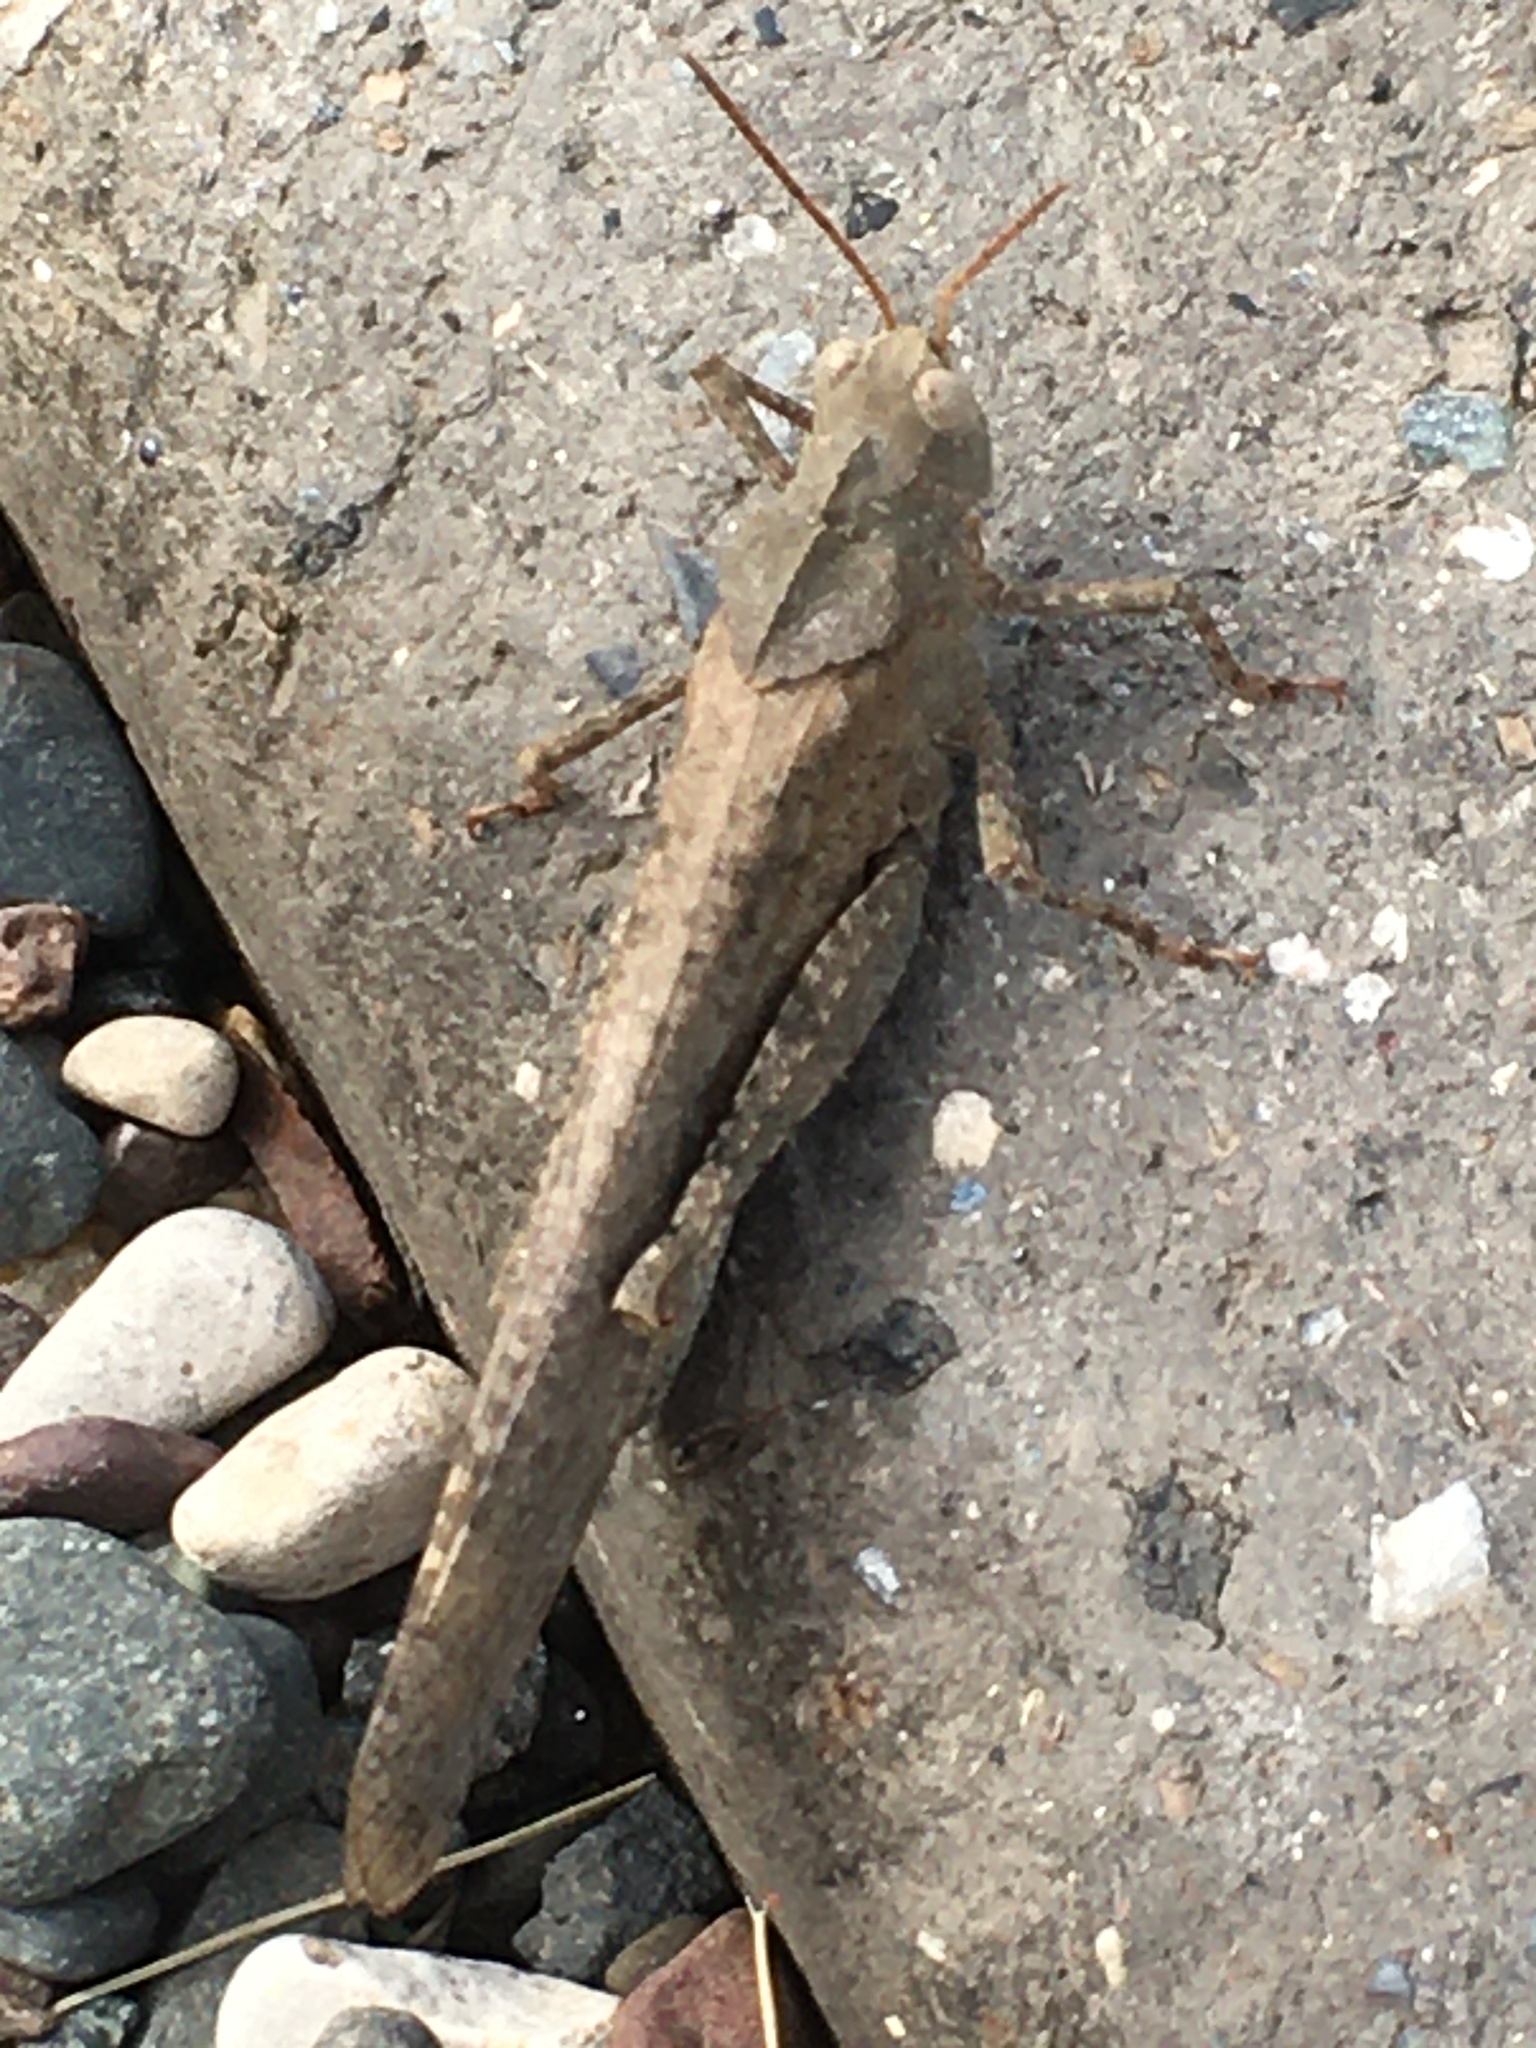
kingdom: Animalia
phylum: Arthropoda
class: Insecta
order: Orthoptera
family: Acrididae
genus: Dissosteira
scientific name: Dissosteira carolina
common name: Carolina grasshopper
